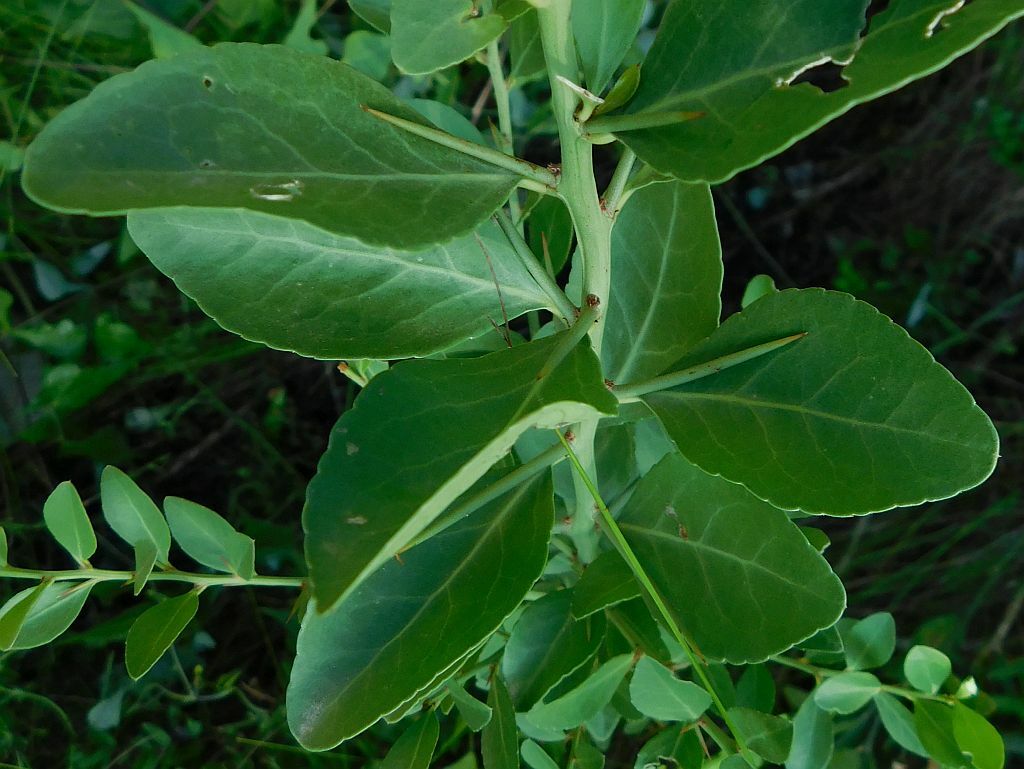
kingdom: Plantae
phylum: Tracheophyta
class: Magnoliopsida
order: Celastrales
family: Celastraceae
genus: Gymnosporia
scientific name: Gymnosporia buxifolia
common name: Common spike-thorn
